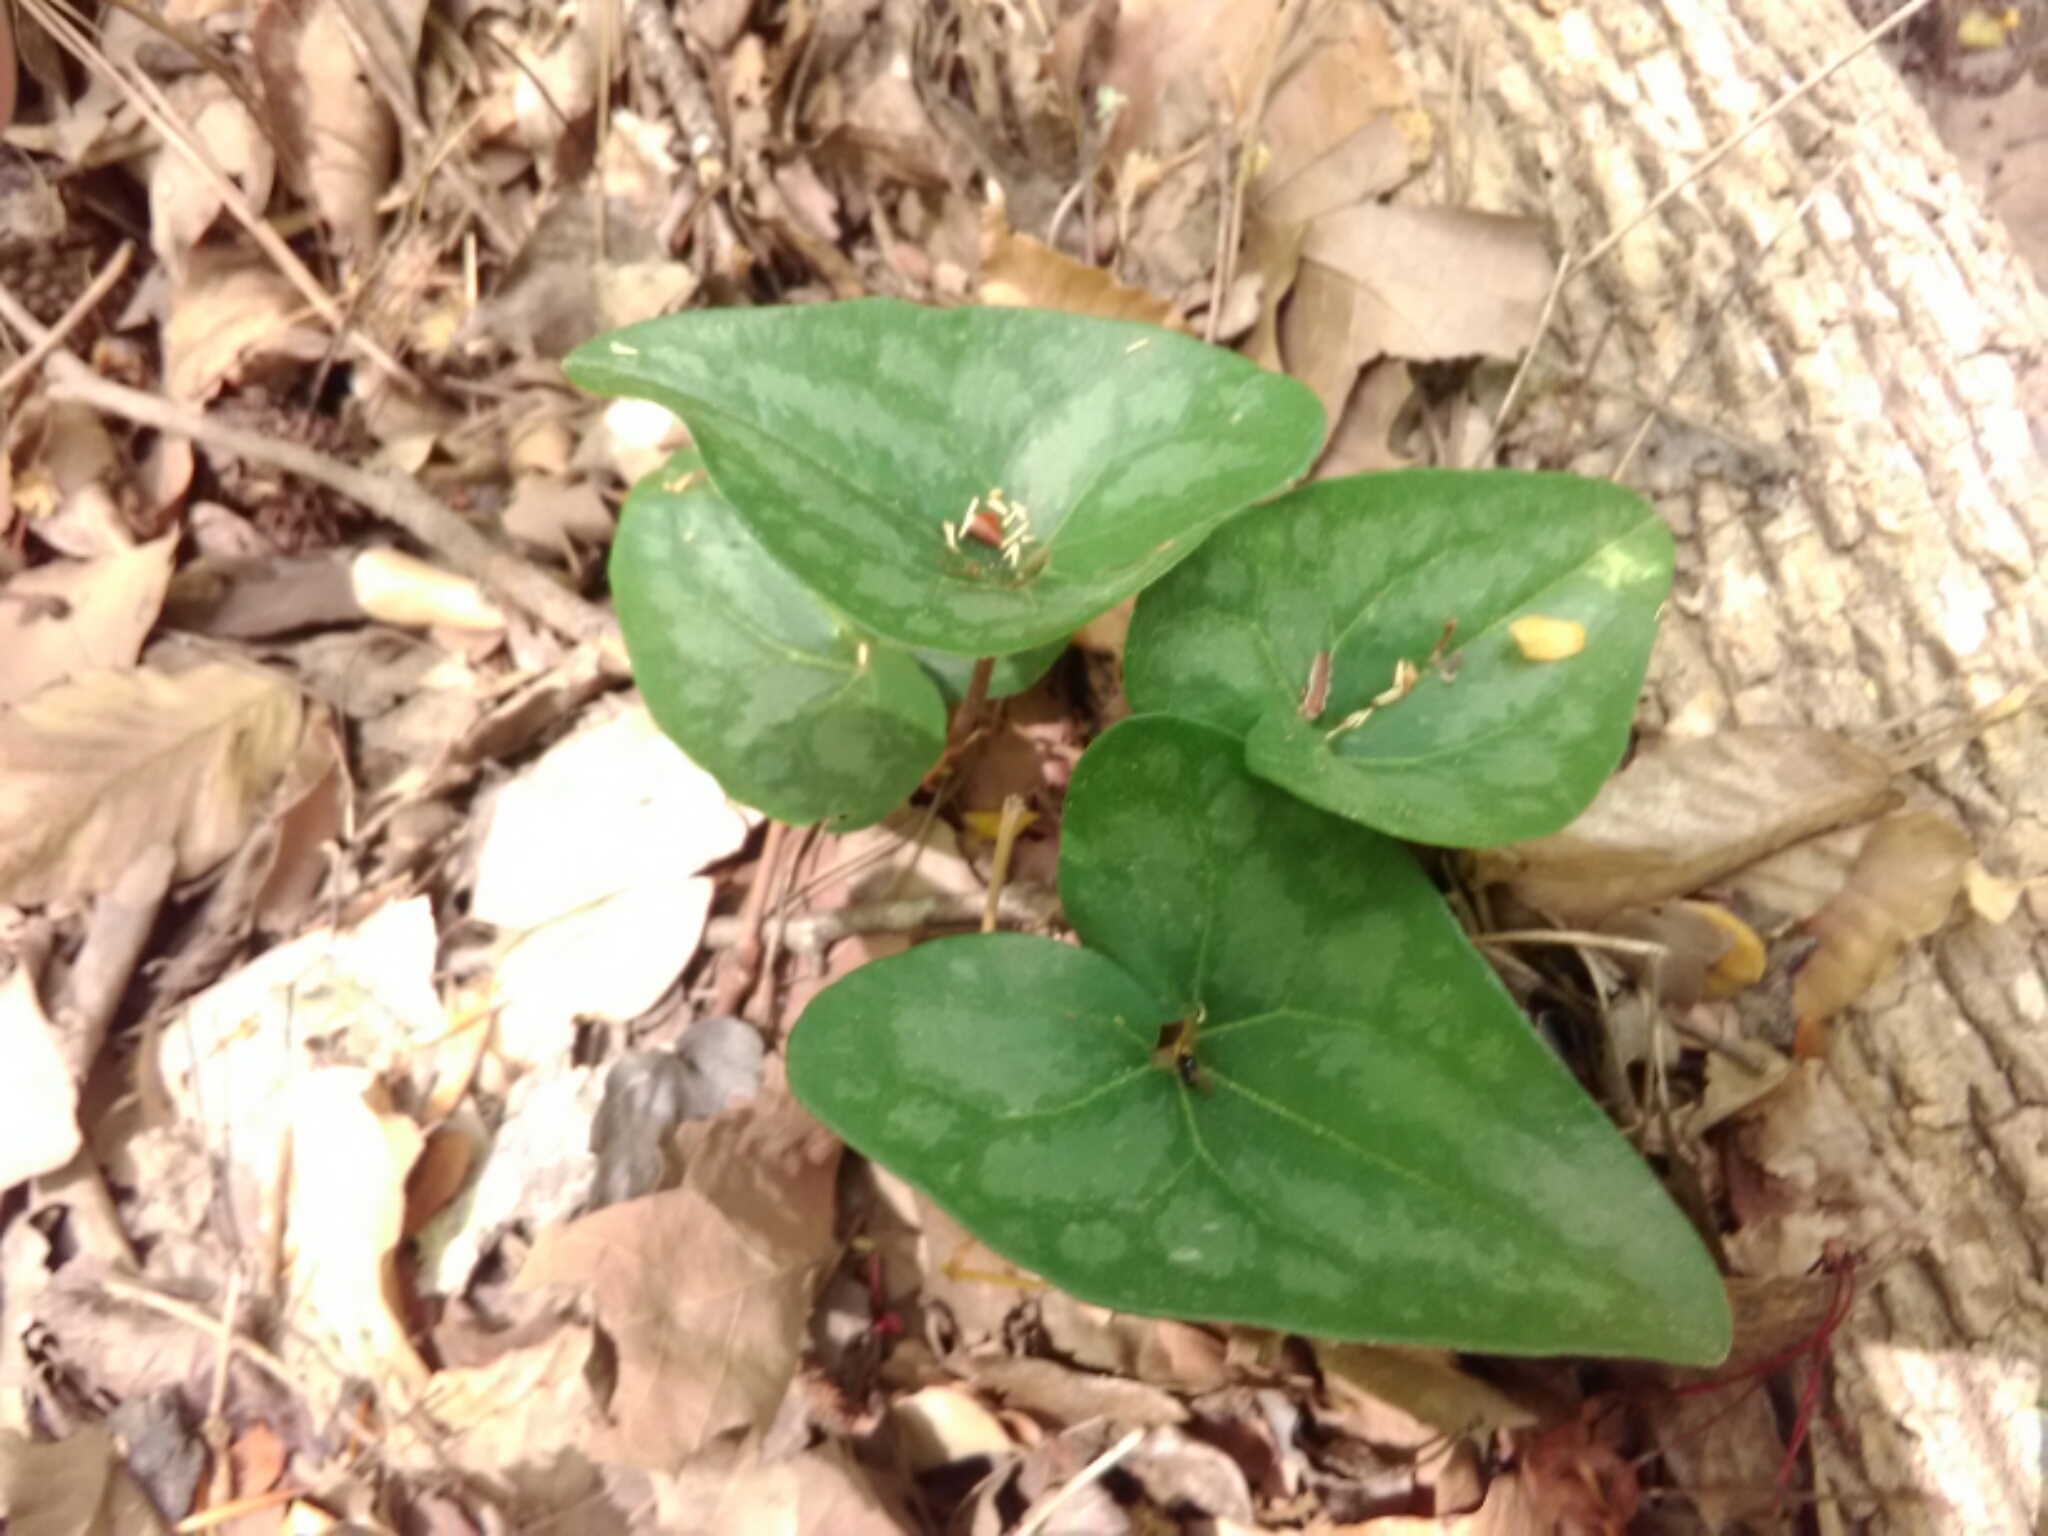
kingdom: Plantae
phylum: Tracheophyta
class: Magnoliopsida
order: Piperales
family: Aristolochiaceae
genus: Hexastylis
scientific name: Hexastylis arifolia
